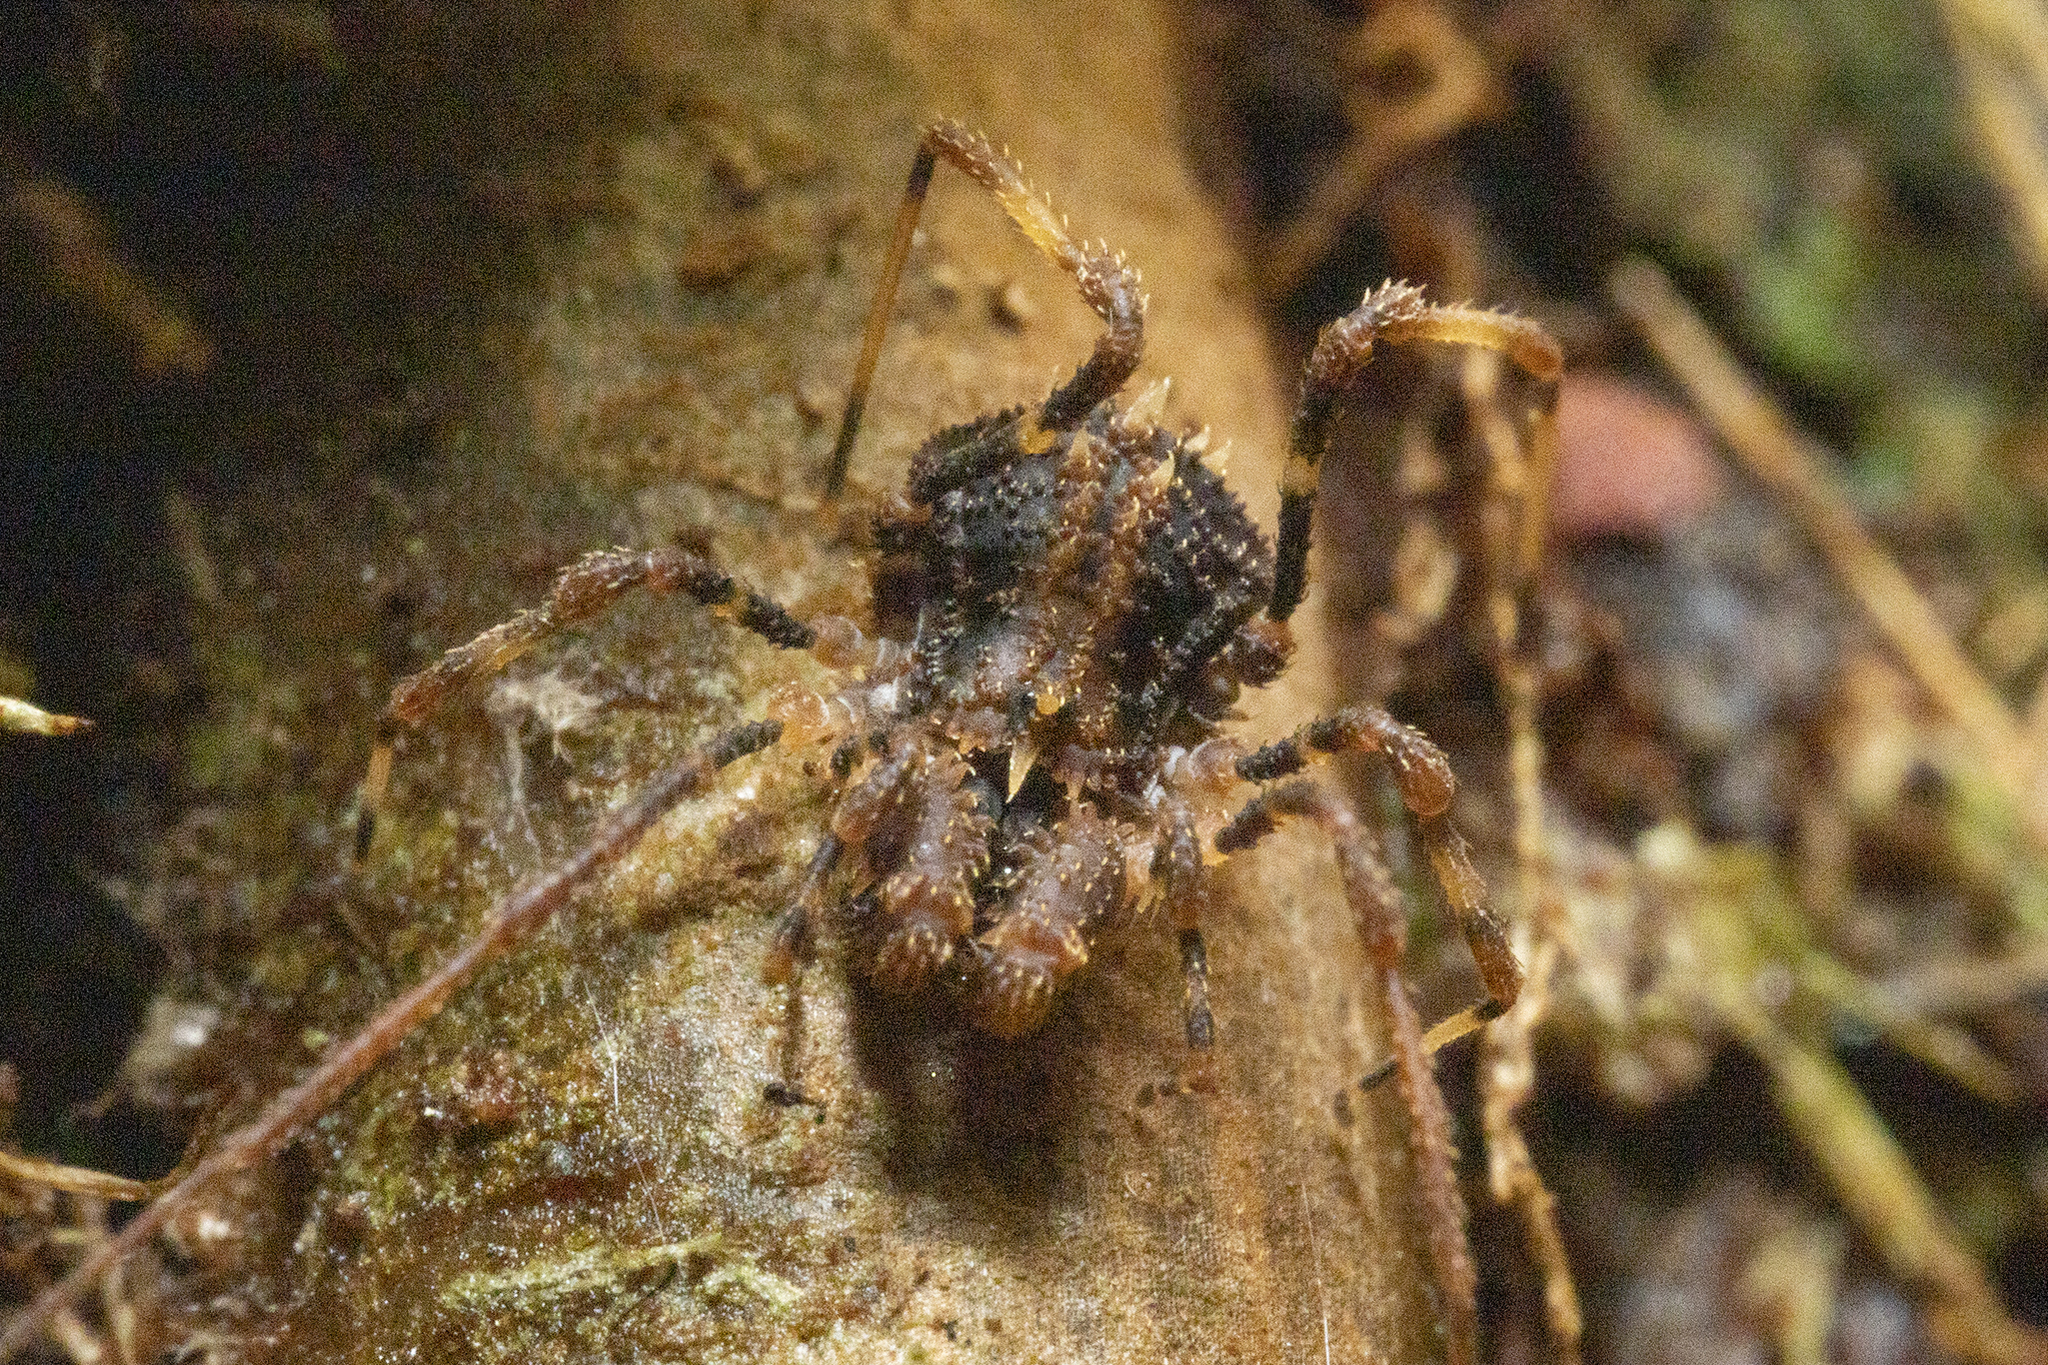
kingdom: Animalia
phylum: Arthropoda
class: Arachnida
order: Opiliones
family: Triaenonychidae
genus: Cenefia
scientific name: Cenefia westlandica
